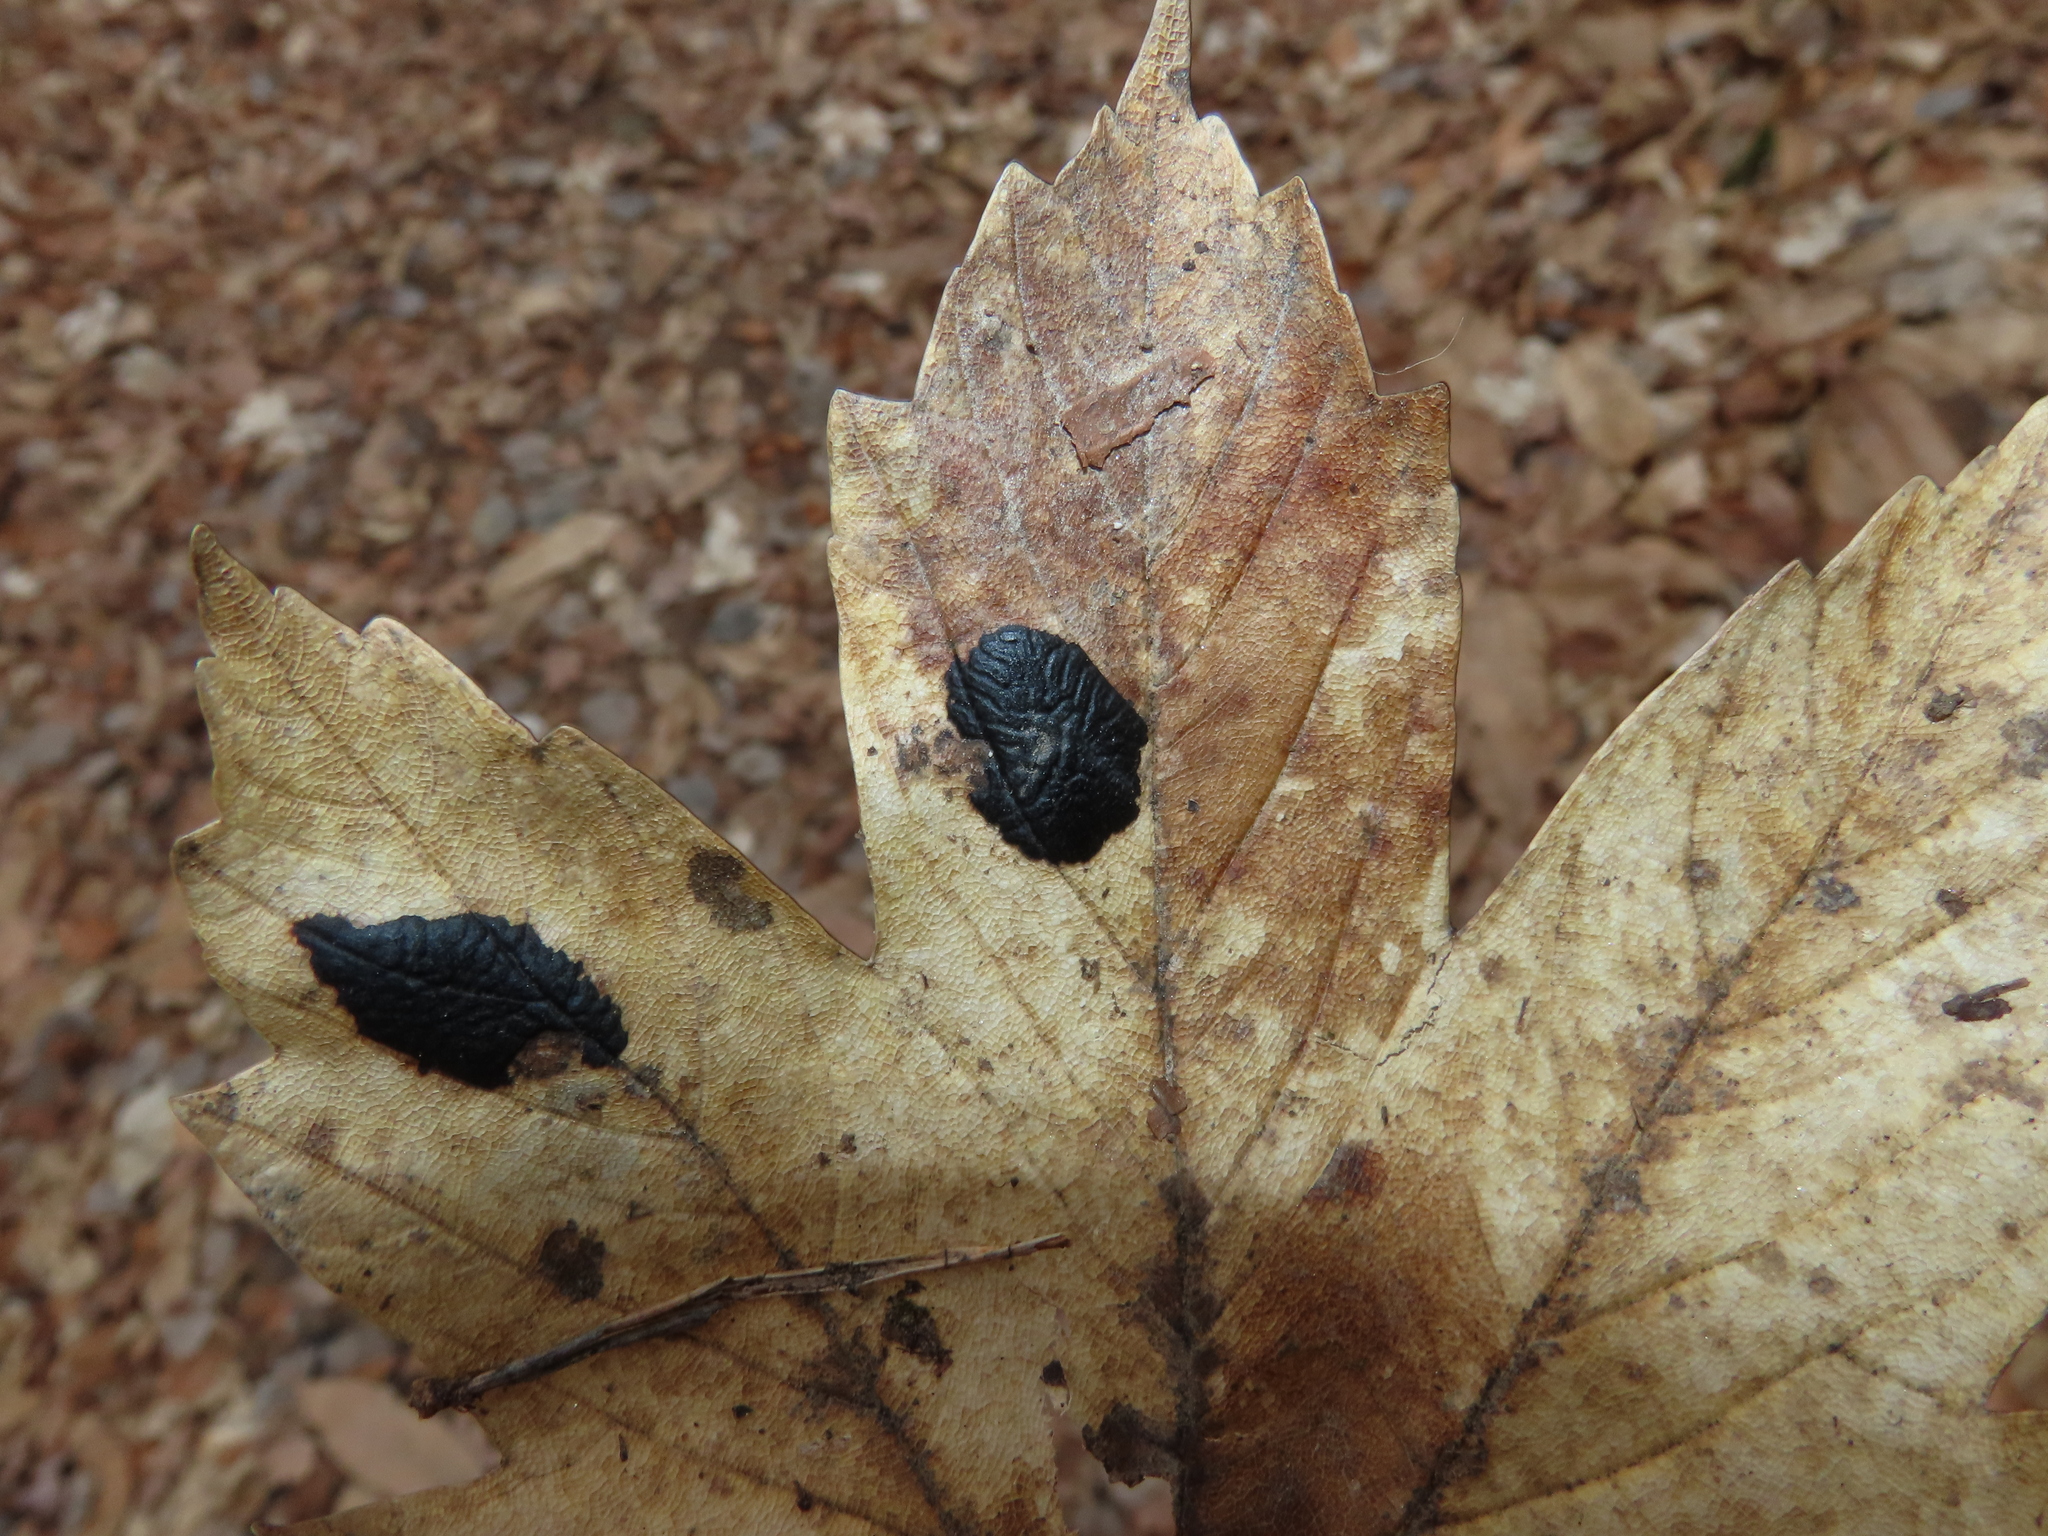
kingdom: Fungi
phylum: Ascomycota
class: Leotiomycetes
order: Rhytismatales
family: Rhytismataceae
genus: Rhytisma
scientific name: Rhytisma acerinum
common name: European tar spot
